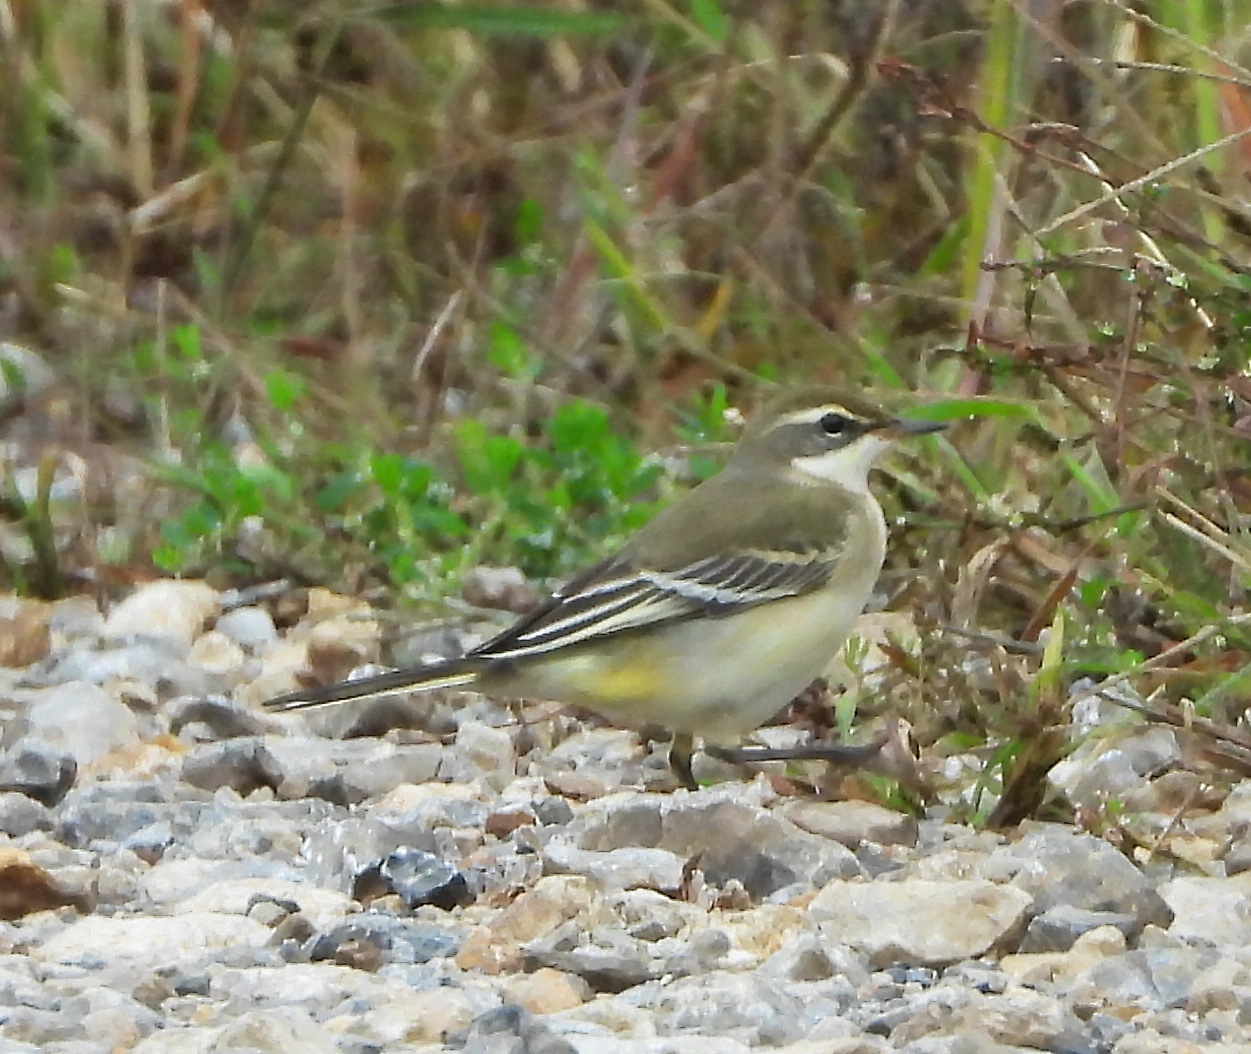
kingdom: Animalia
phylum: Chordata
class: Aves
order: Passeriformes
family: Motacillidae
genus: Motacilla
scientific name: Motacilla cinerea
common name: Grey wagtail
